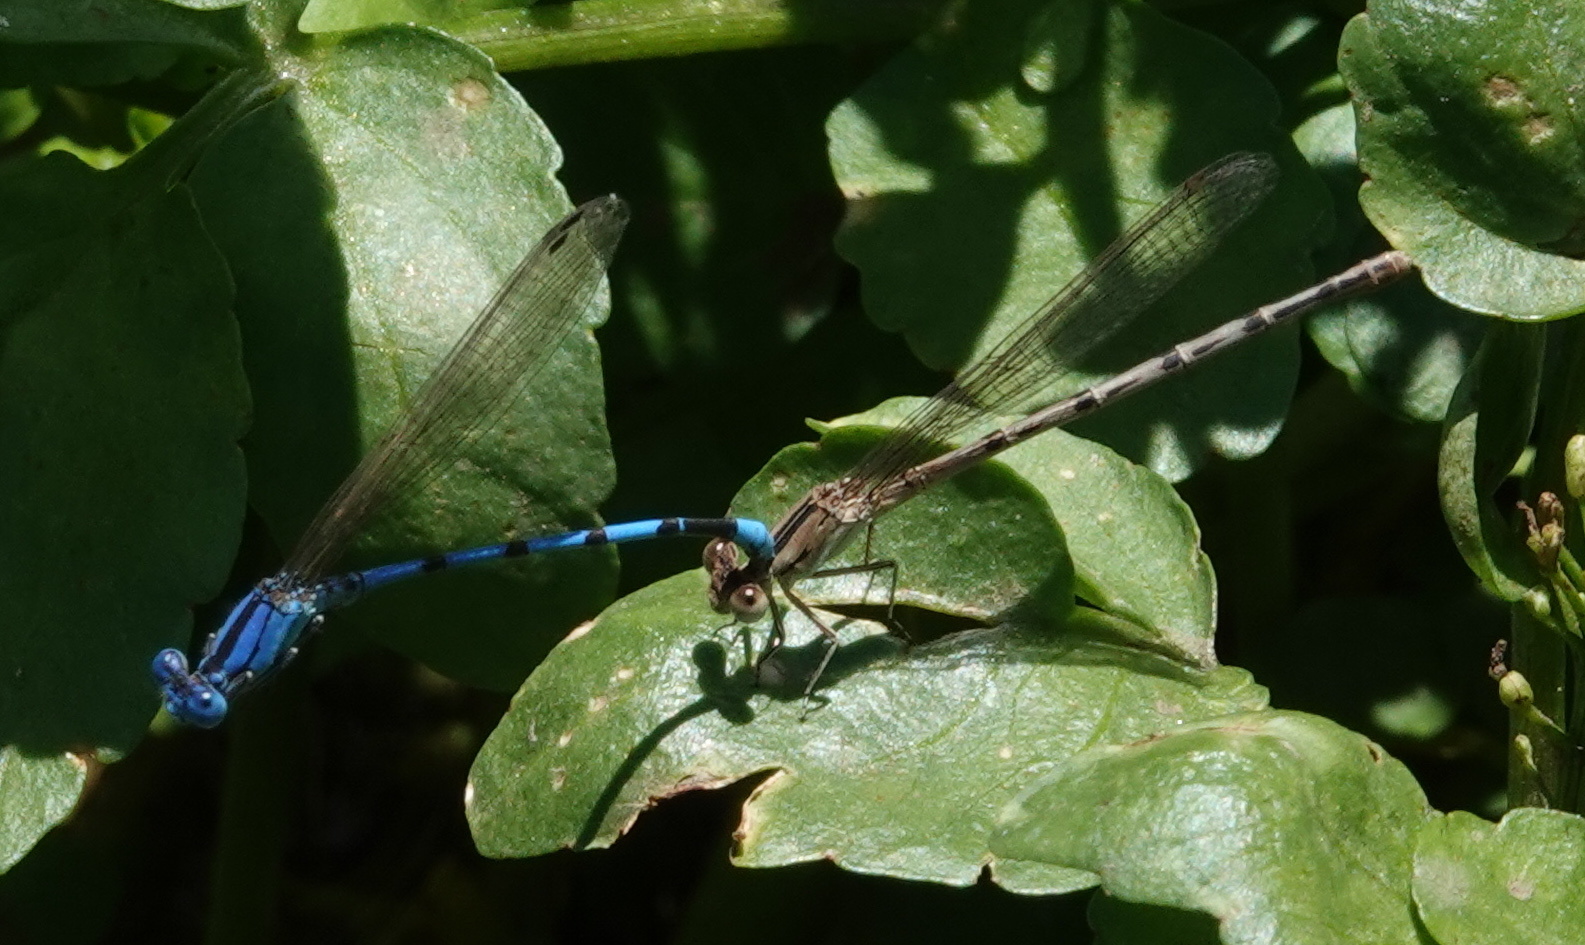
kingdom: Animalia
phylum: Arthropoda
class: Insecta
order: Odonata
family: Coenagrionidae
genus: Argia
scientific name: Argia nahuana
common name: Aztec dancer
